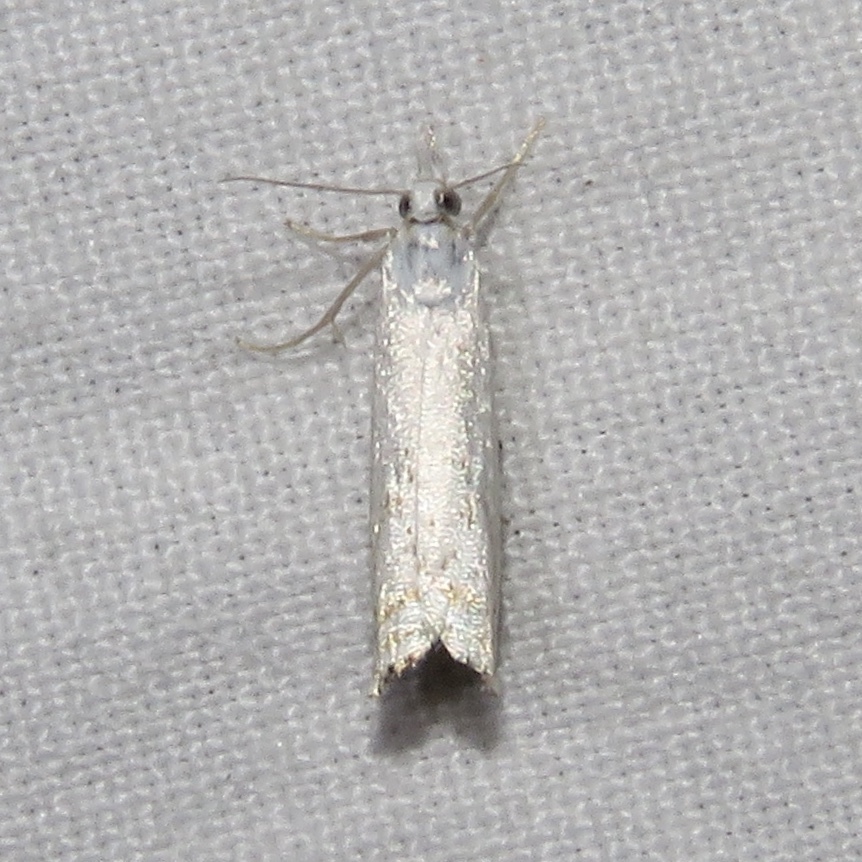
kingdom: Animalia
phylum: Arthropoda
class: Insecta
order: Lepidoptera
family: Crambidae
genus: Crambus
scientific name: Crambus albellus
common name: Small white grass-veneer
